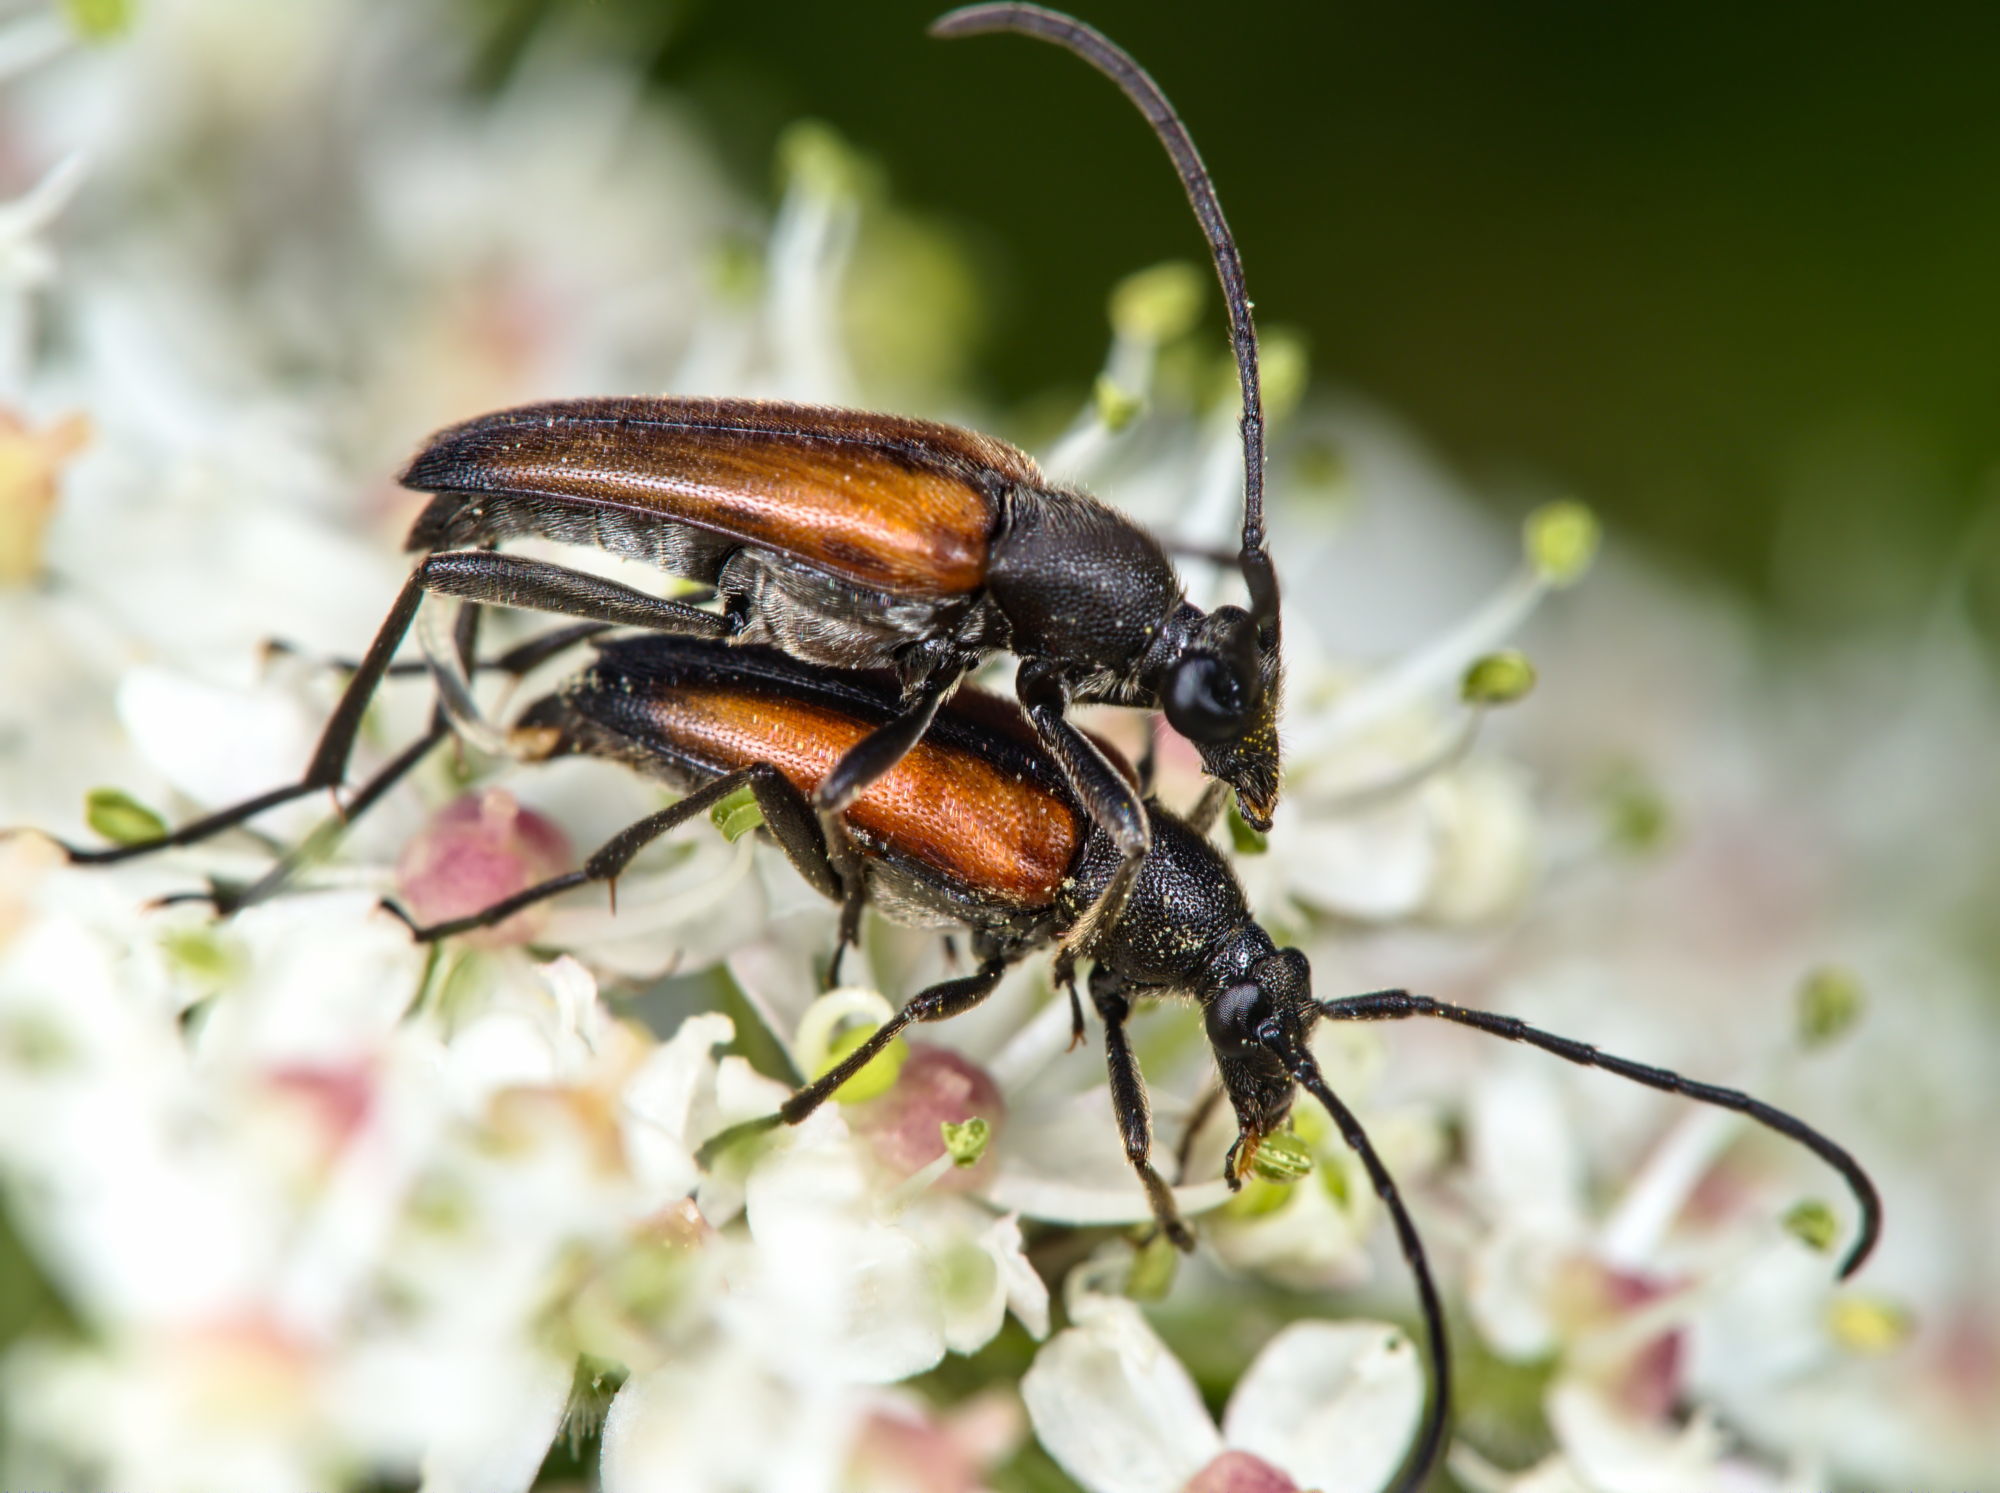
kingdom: Animalia
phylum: Arthropoda
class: Insecta
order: Coleoptera
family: Cerambycidae
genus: Stenurella
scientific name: Stenurella melanura
